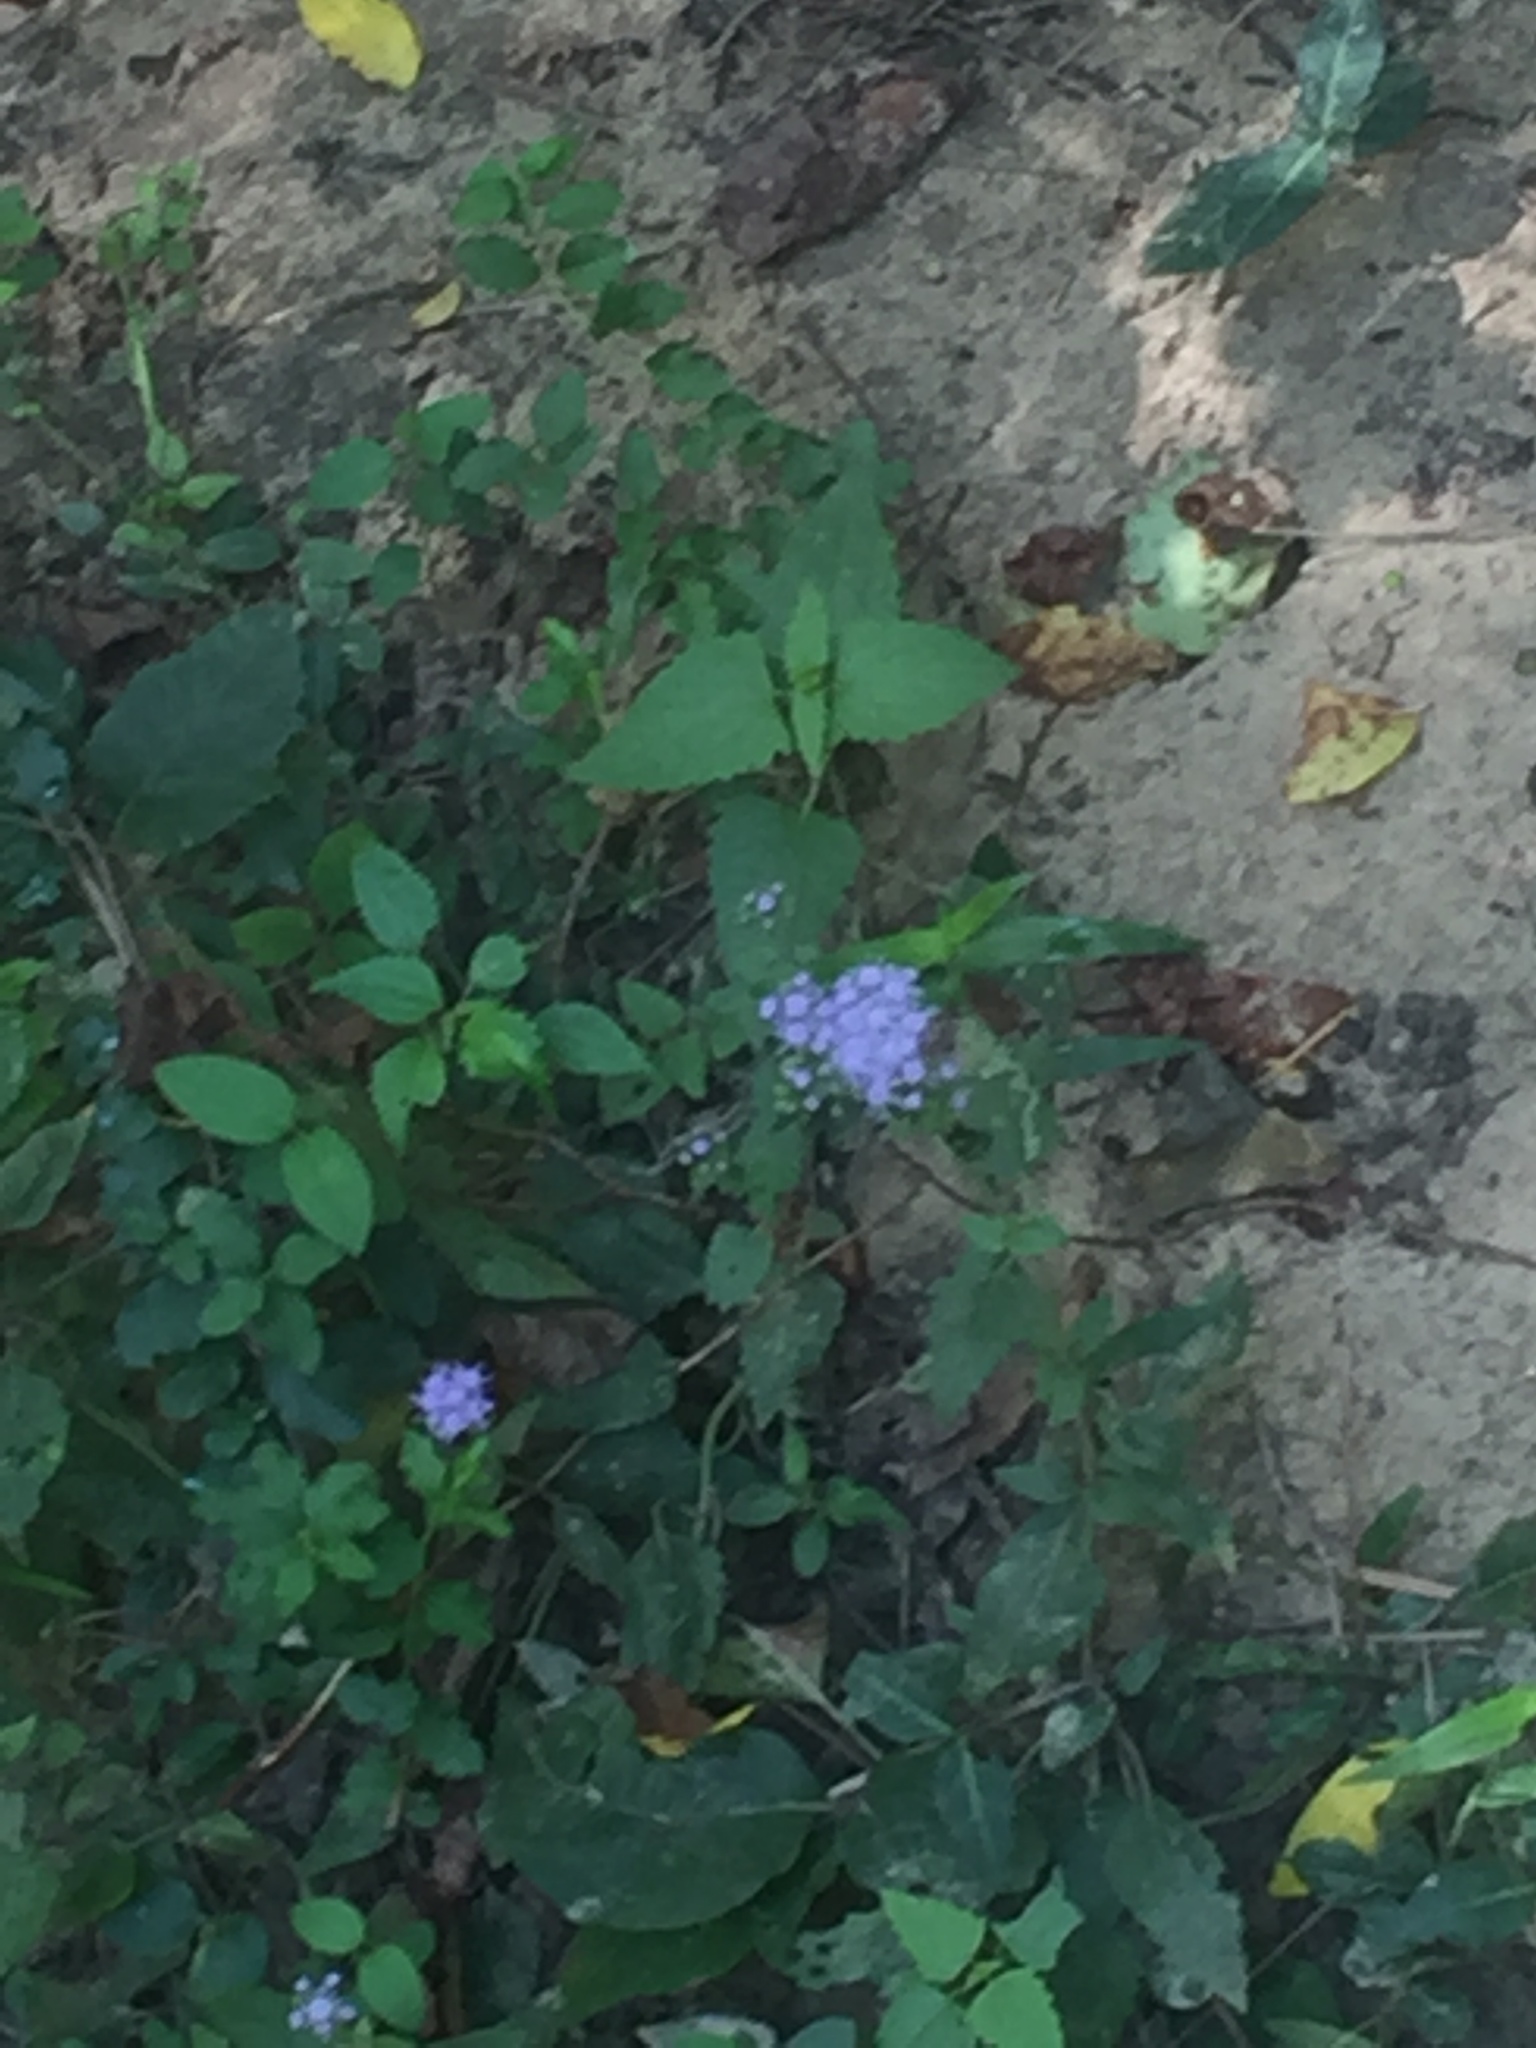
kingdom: Plantae
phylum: Tracheophyta
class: Magnoliopsida
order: Asterales
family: Asteraceae
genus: Conoclinium
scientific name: Conoclinium coelestinum
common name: Blue mistflower
